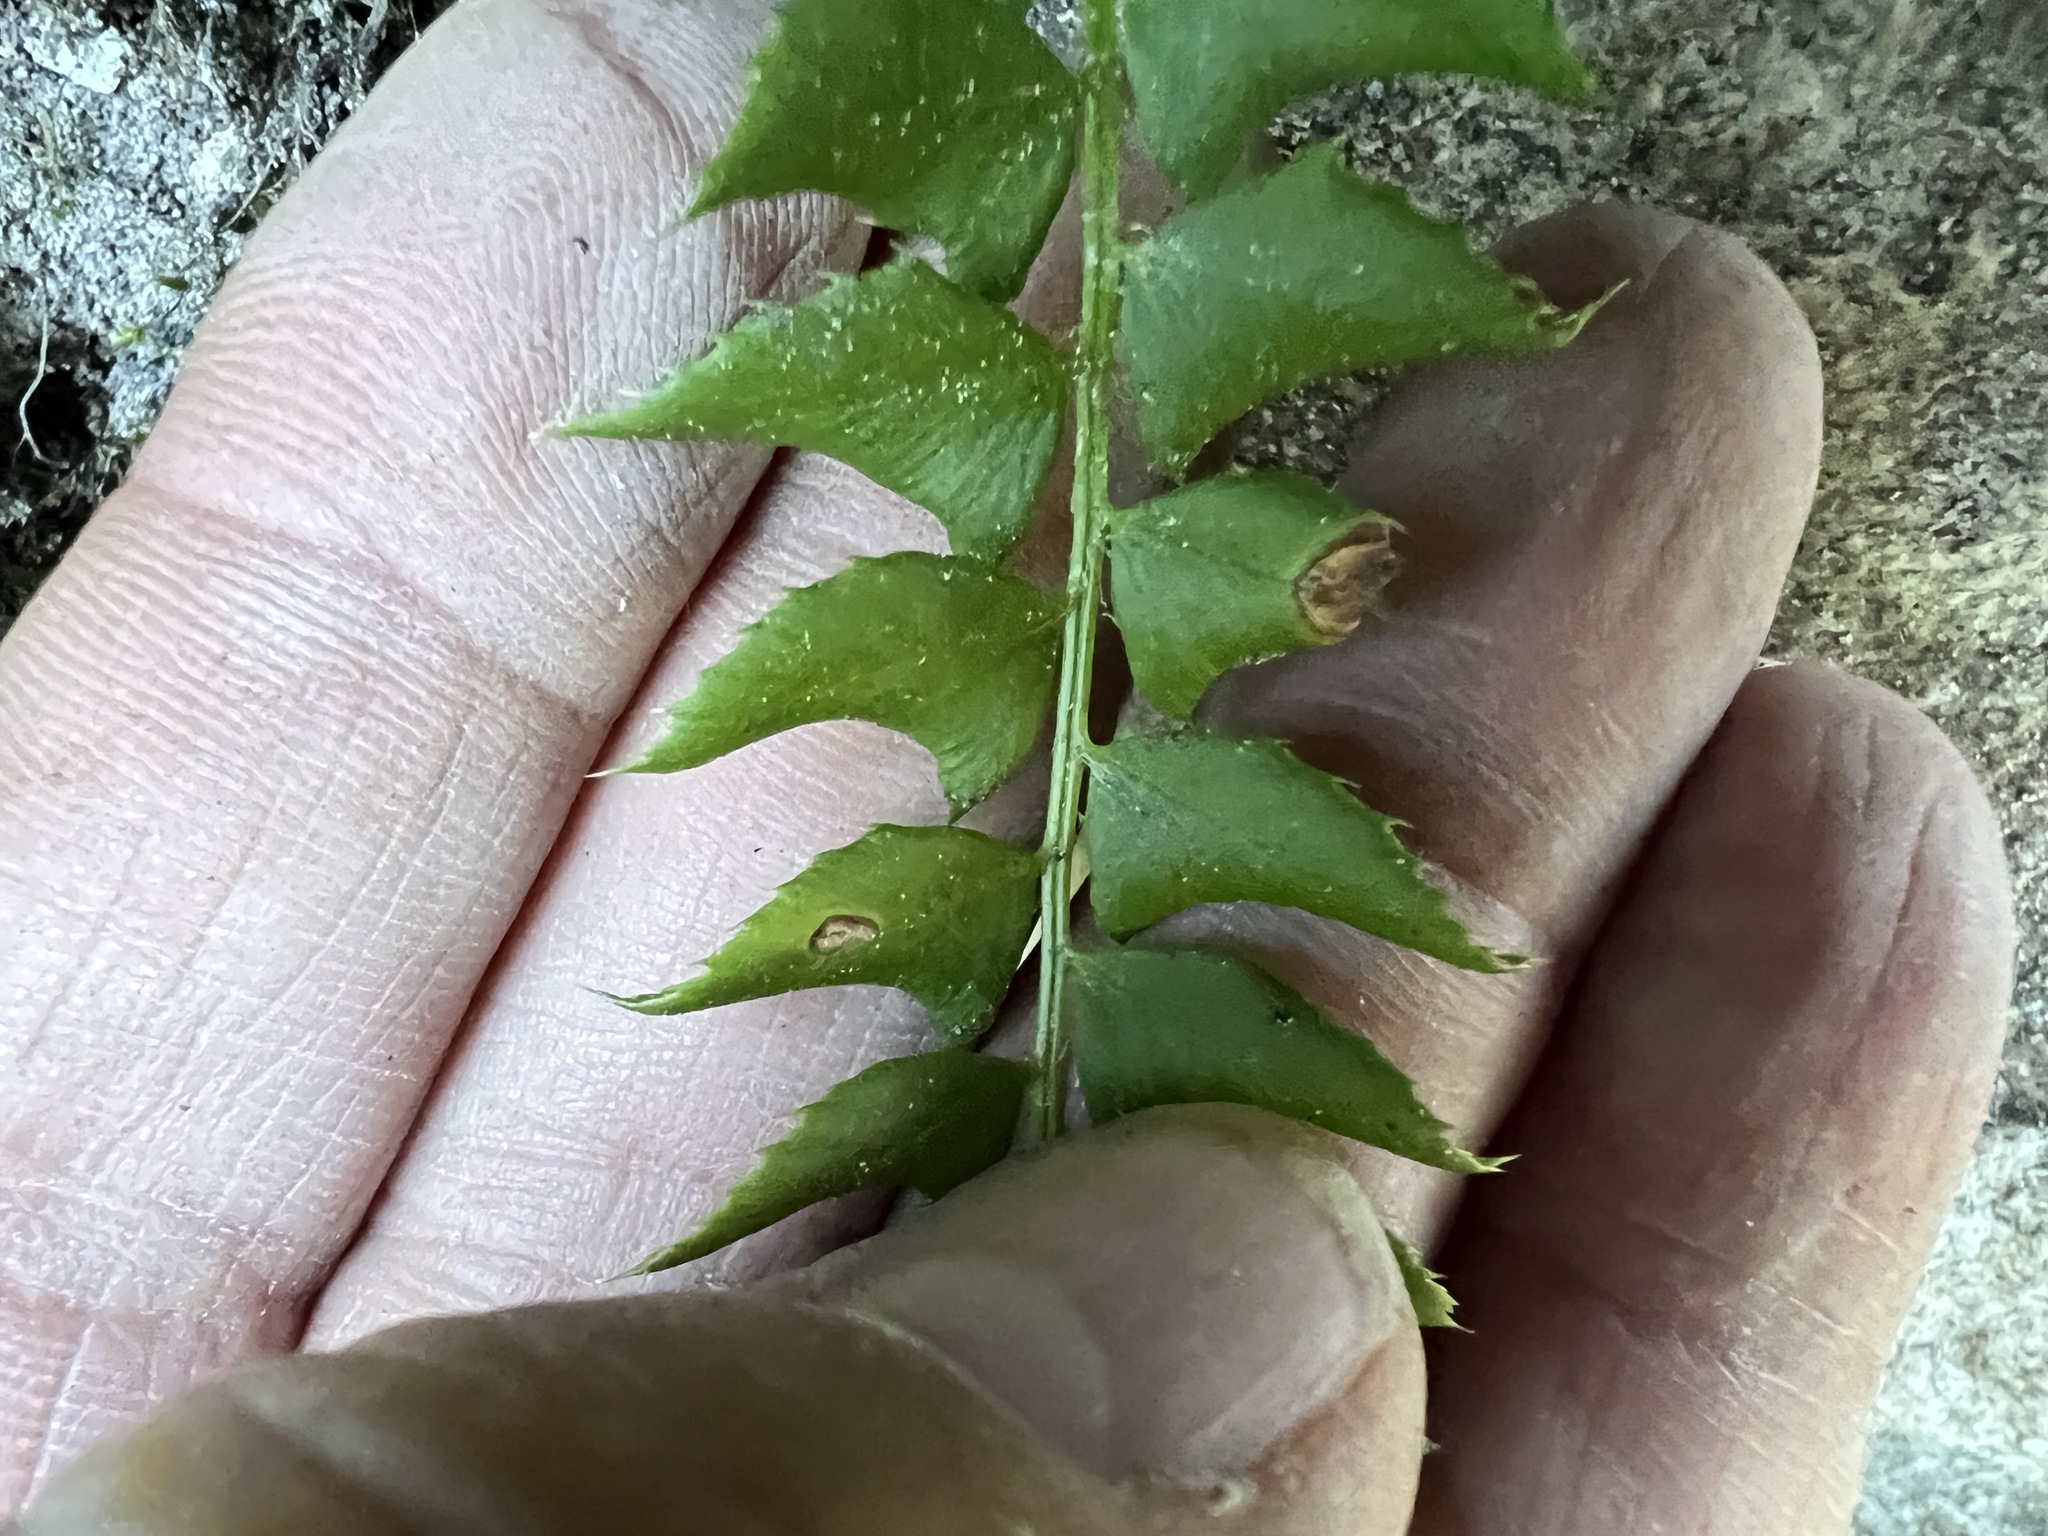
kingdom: Plantae
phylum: Tracheophyta
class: Polypodiopsida
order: Polypodiales
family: Dryopteridaceae
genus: Polystichum
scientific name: Polystichum lonchitis
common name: Holly fern
